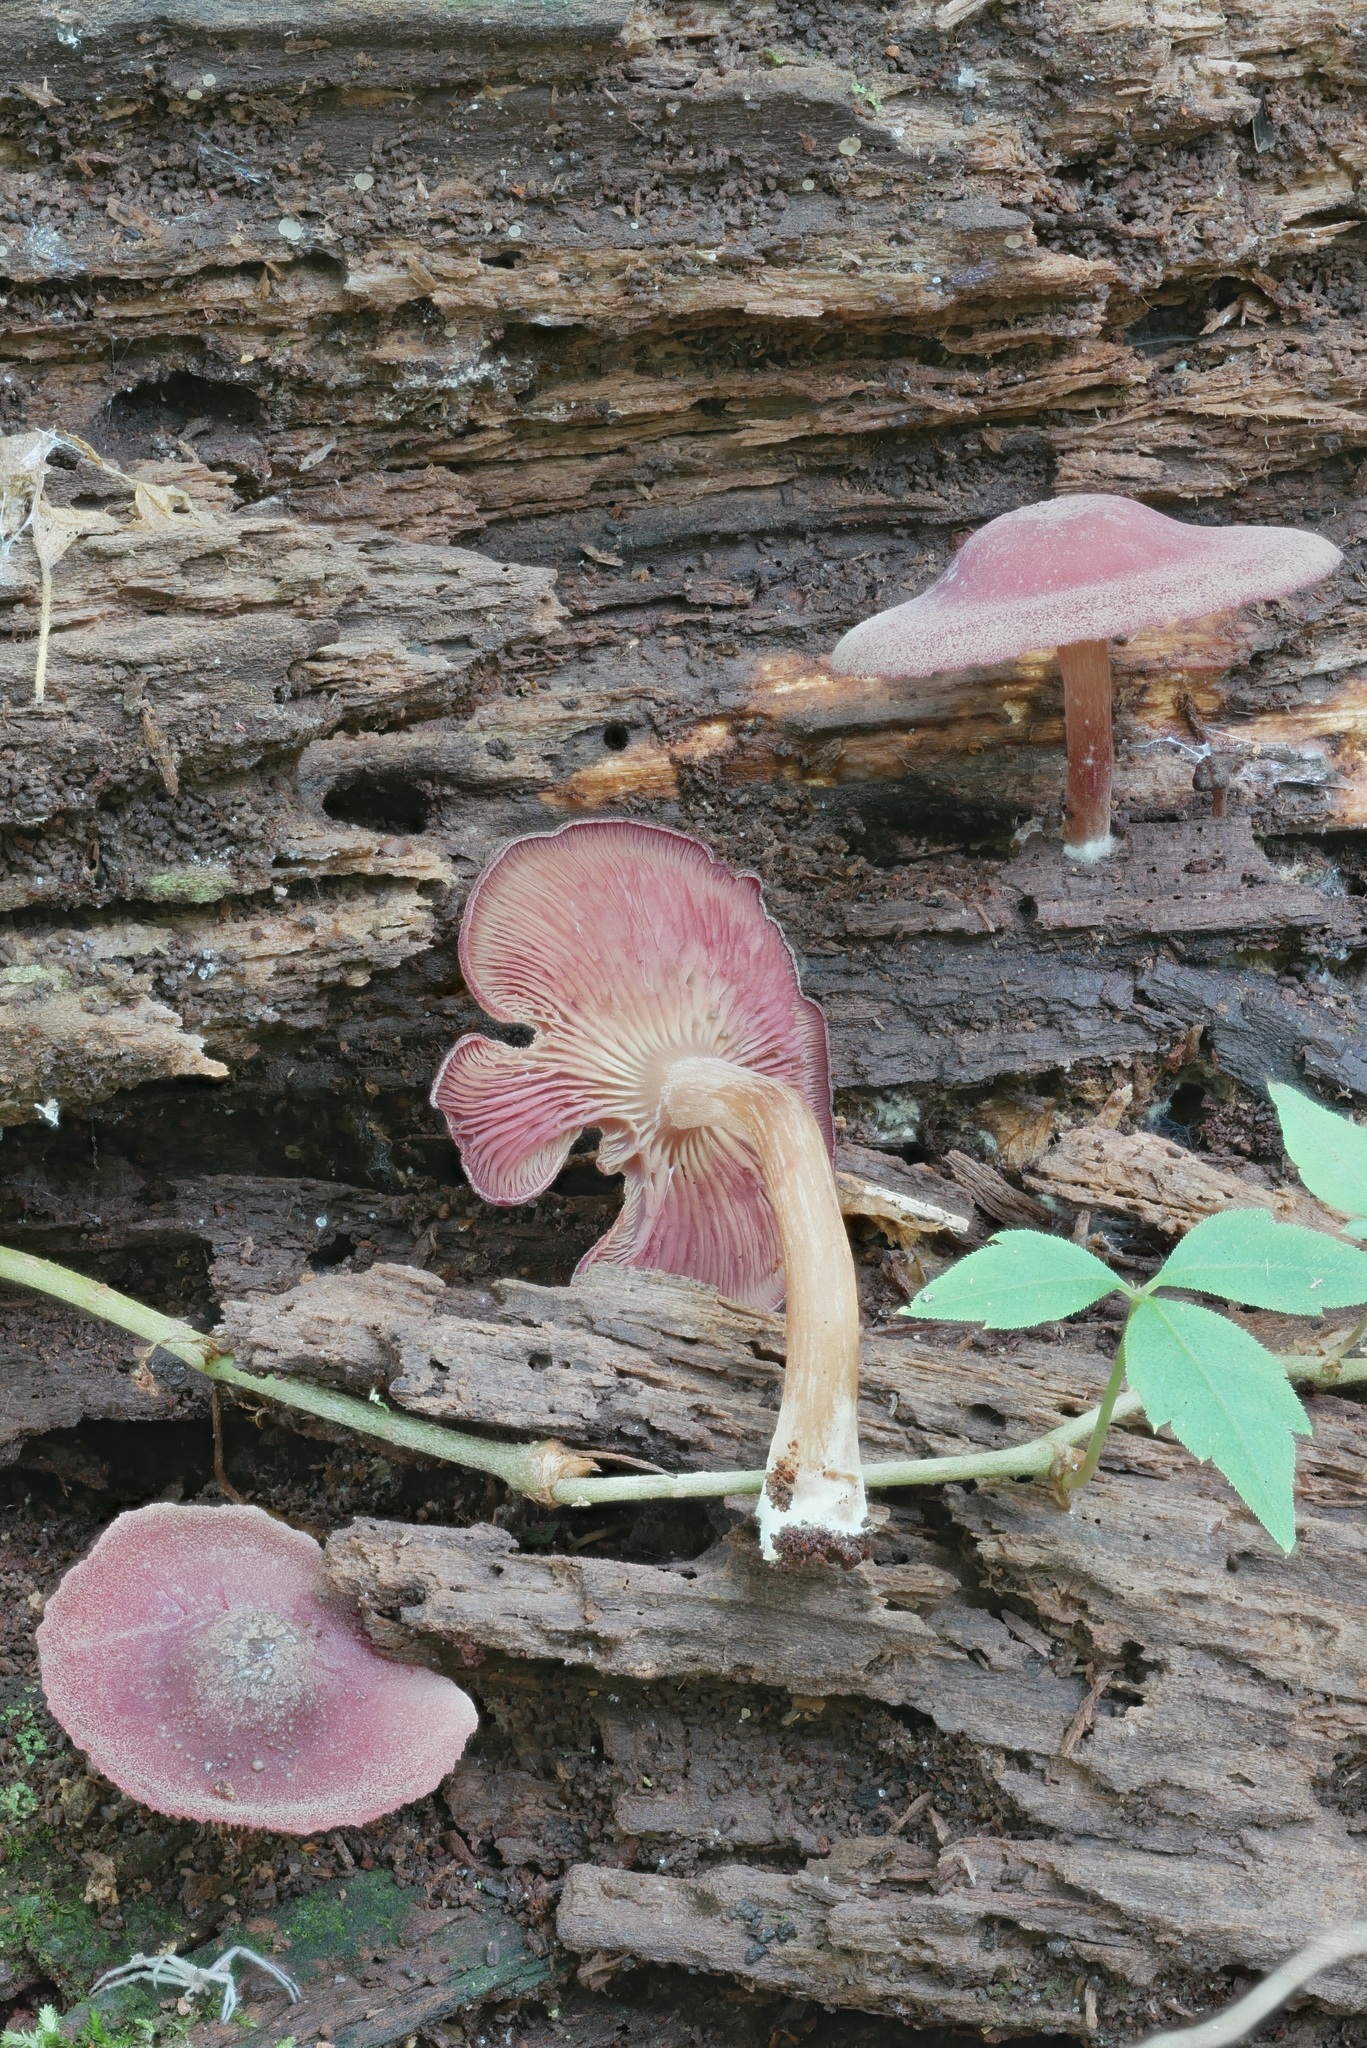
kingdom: Fungi
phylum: Basidiomycota
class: Agaricomycetes
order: Agaricales
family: Callistosporiaceae
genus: Callistosporium
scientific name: Callistosporium purpureomarginatum
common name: Purple-edged lute
